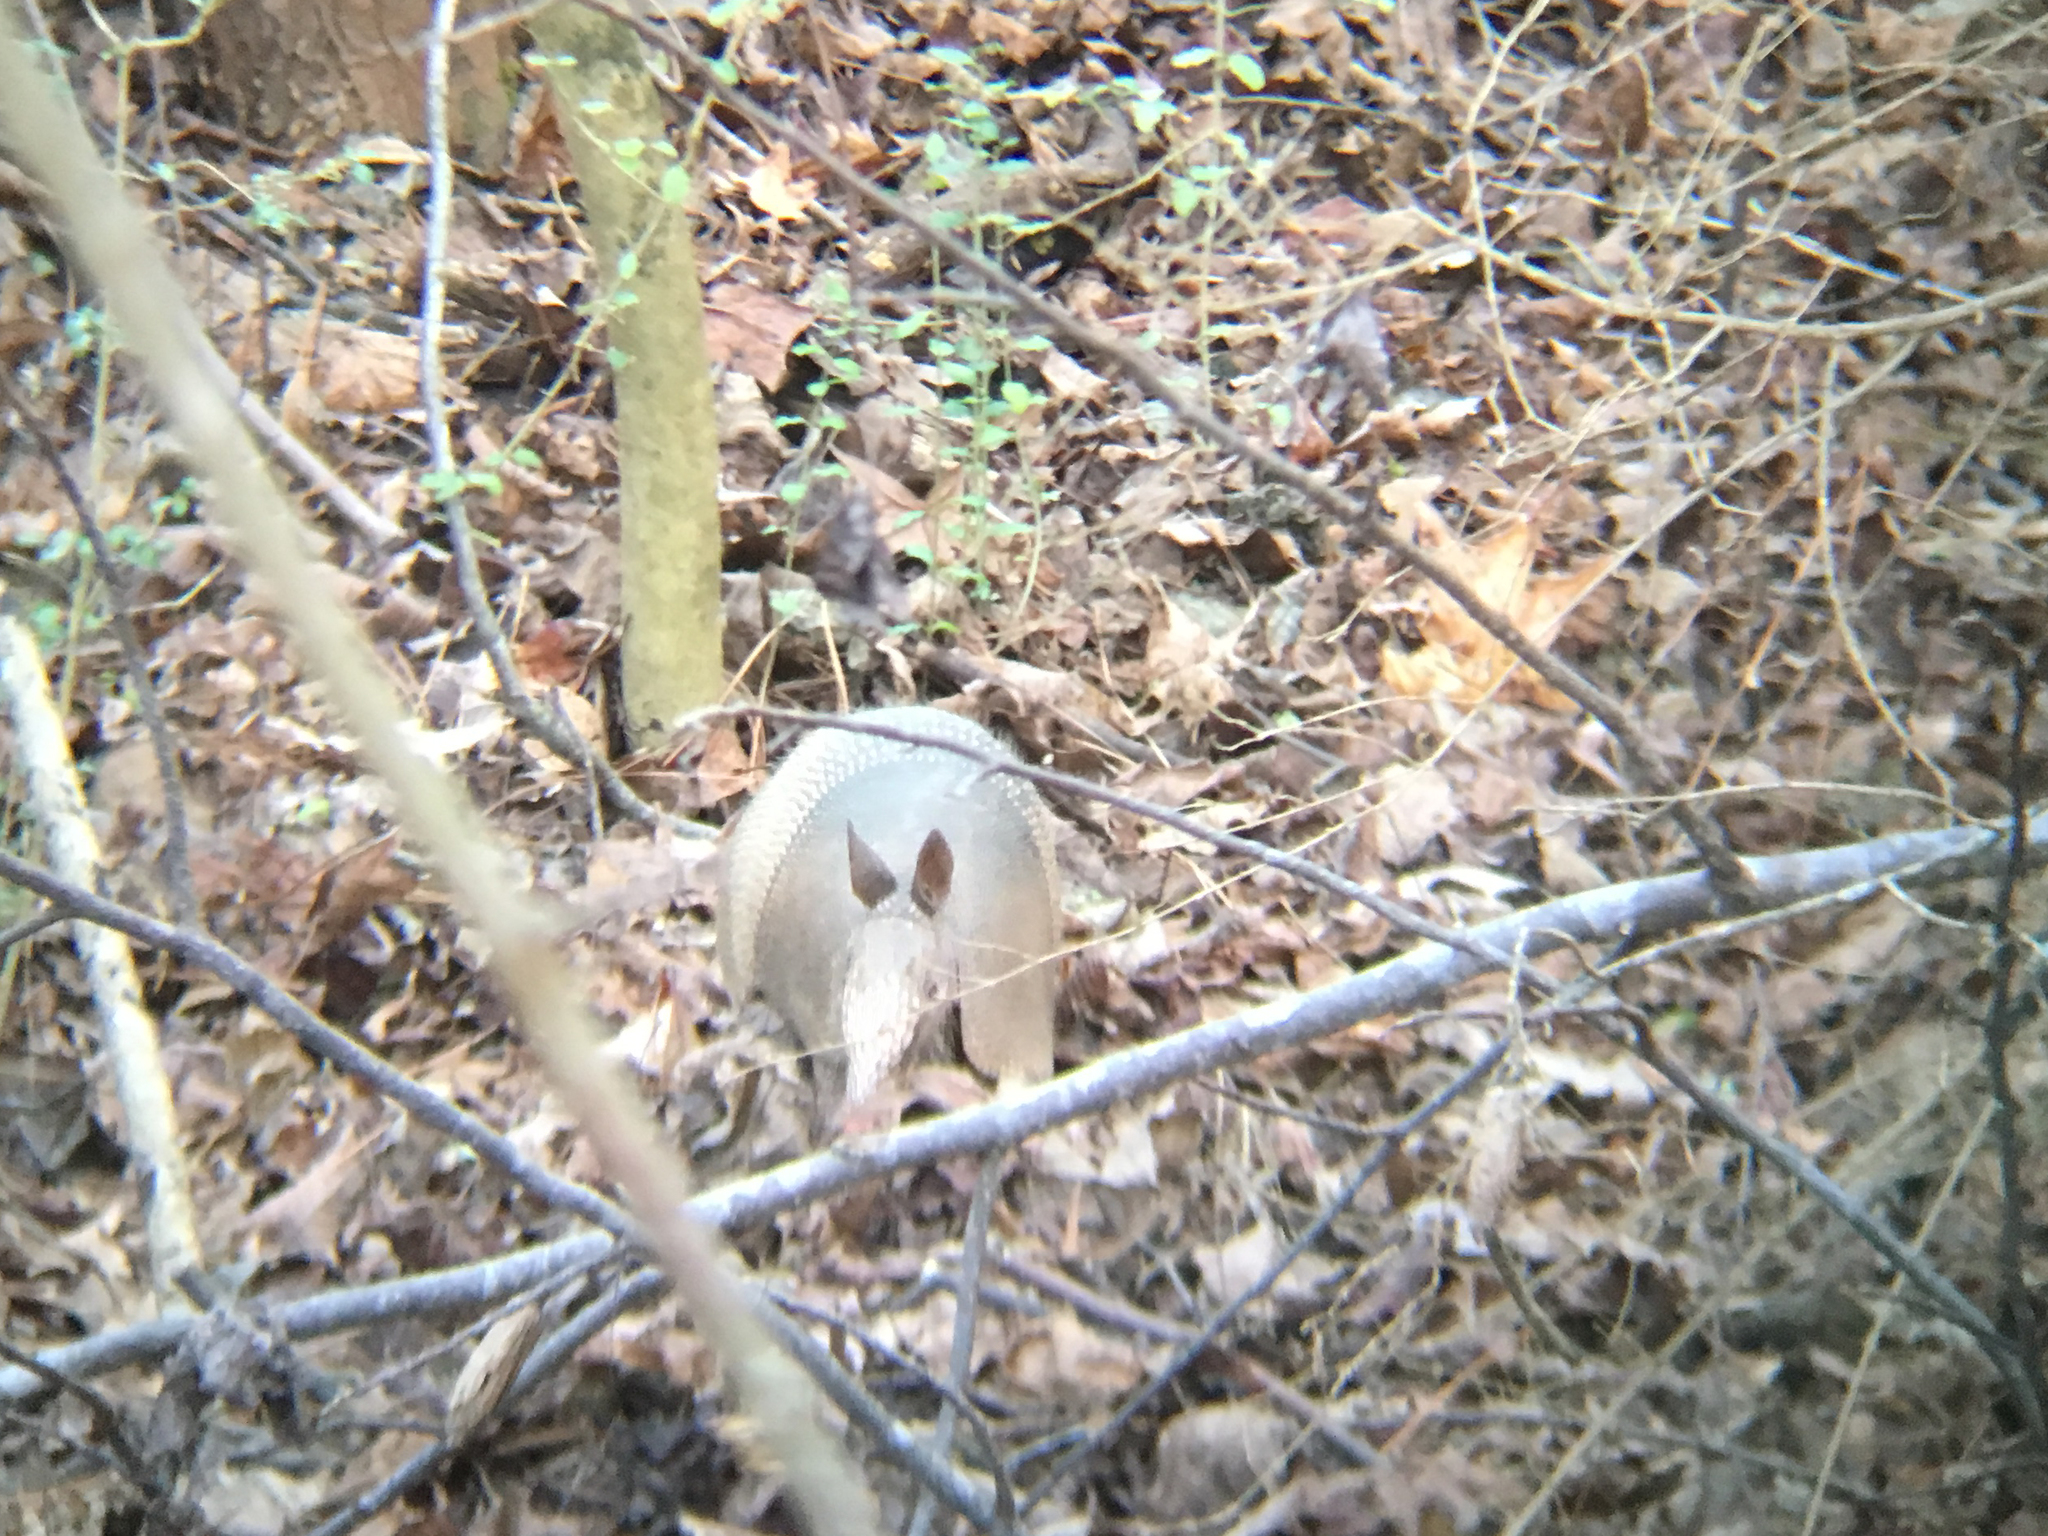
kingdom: Animalia
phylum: Chordata
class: Mammalia
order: Cingulata
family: Dasypodidae
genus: Dasypus
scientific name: Dasypus novemcinctus
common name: Nine-banded armadillo
